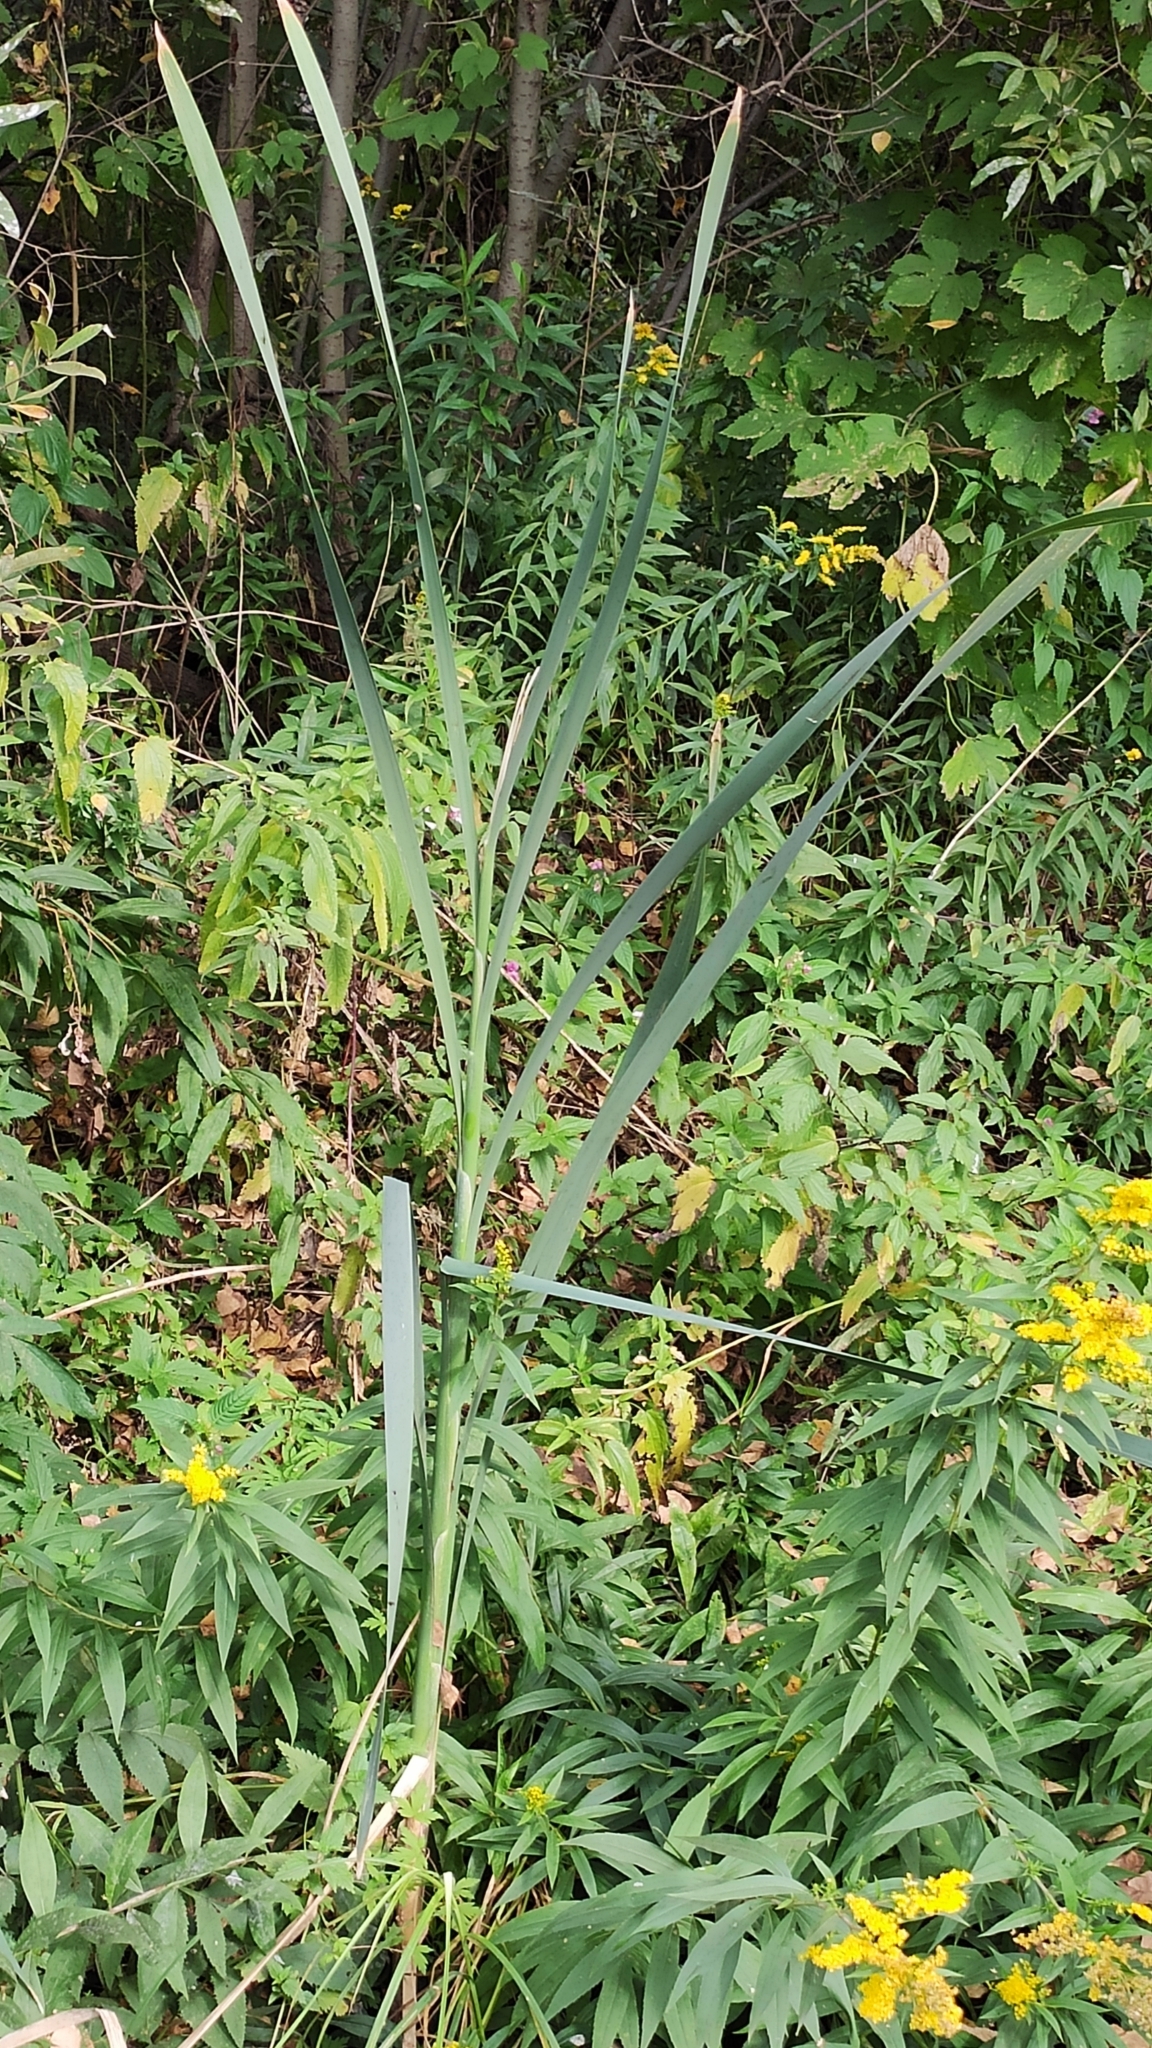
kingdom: Plantae
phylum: Tracheophyta
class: Liliopsida
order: Poales
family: Typhaceae
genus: Typha
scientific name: Typha latifolia
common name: Broadleaf cattail
